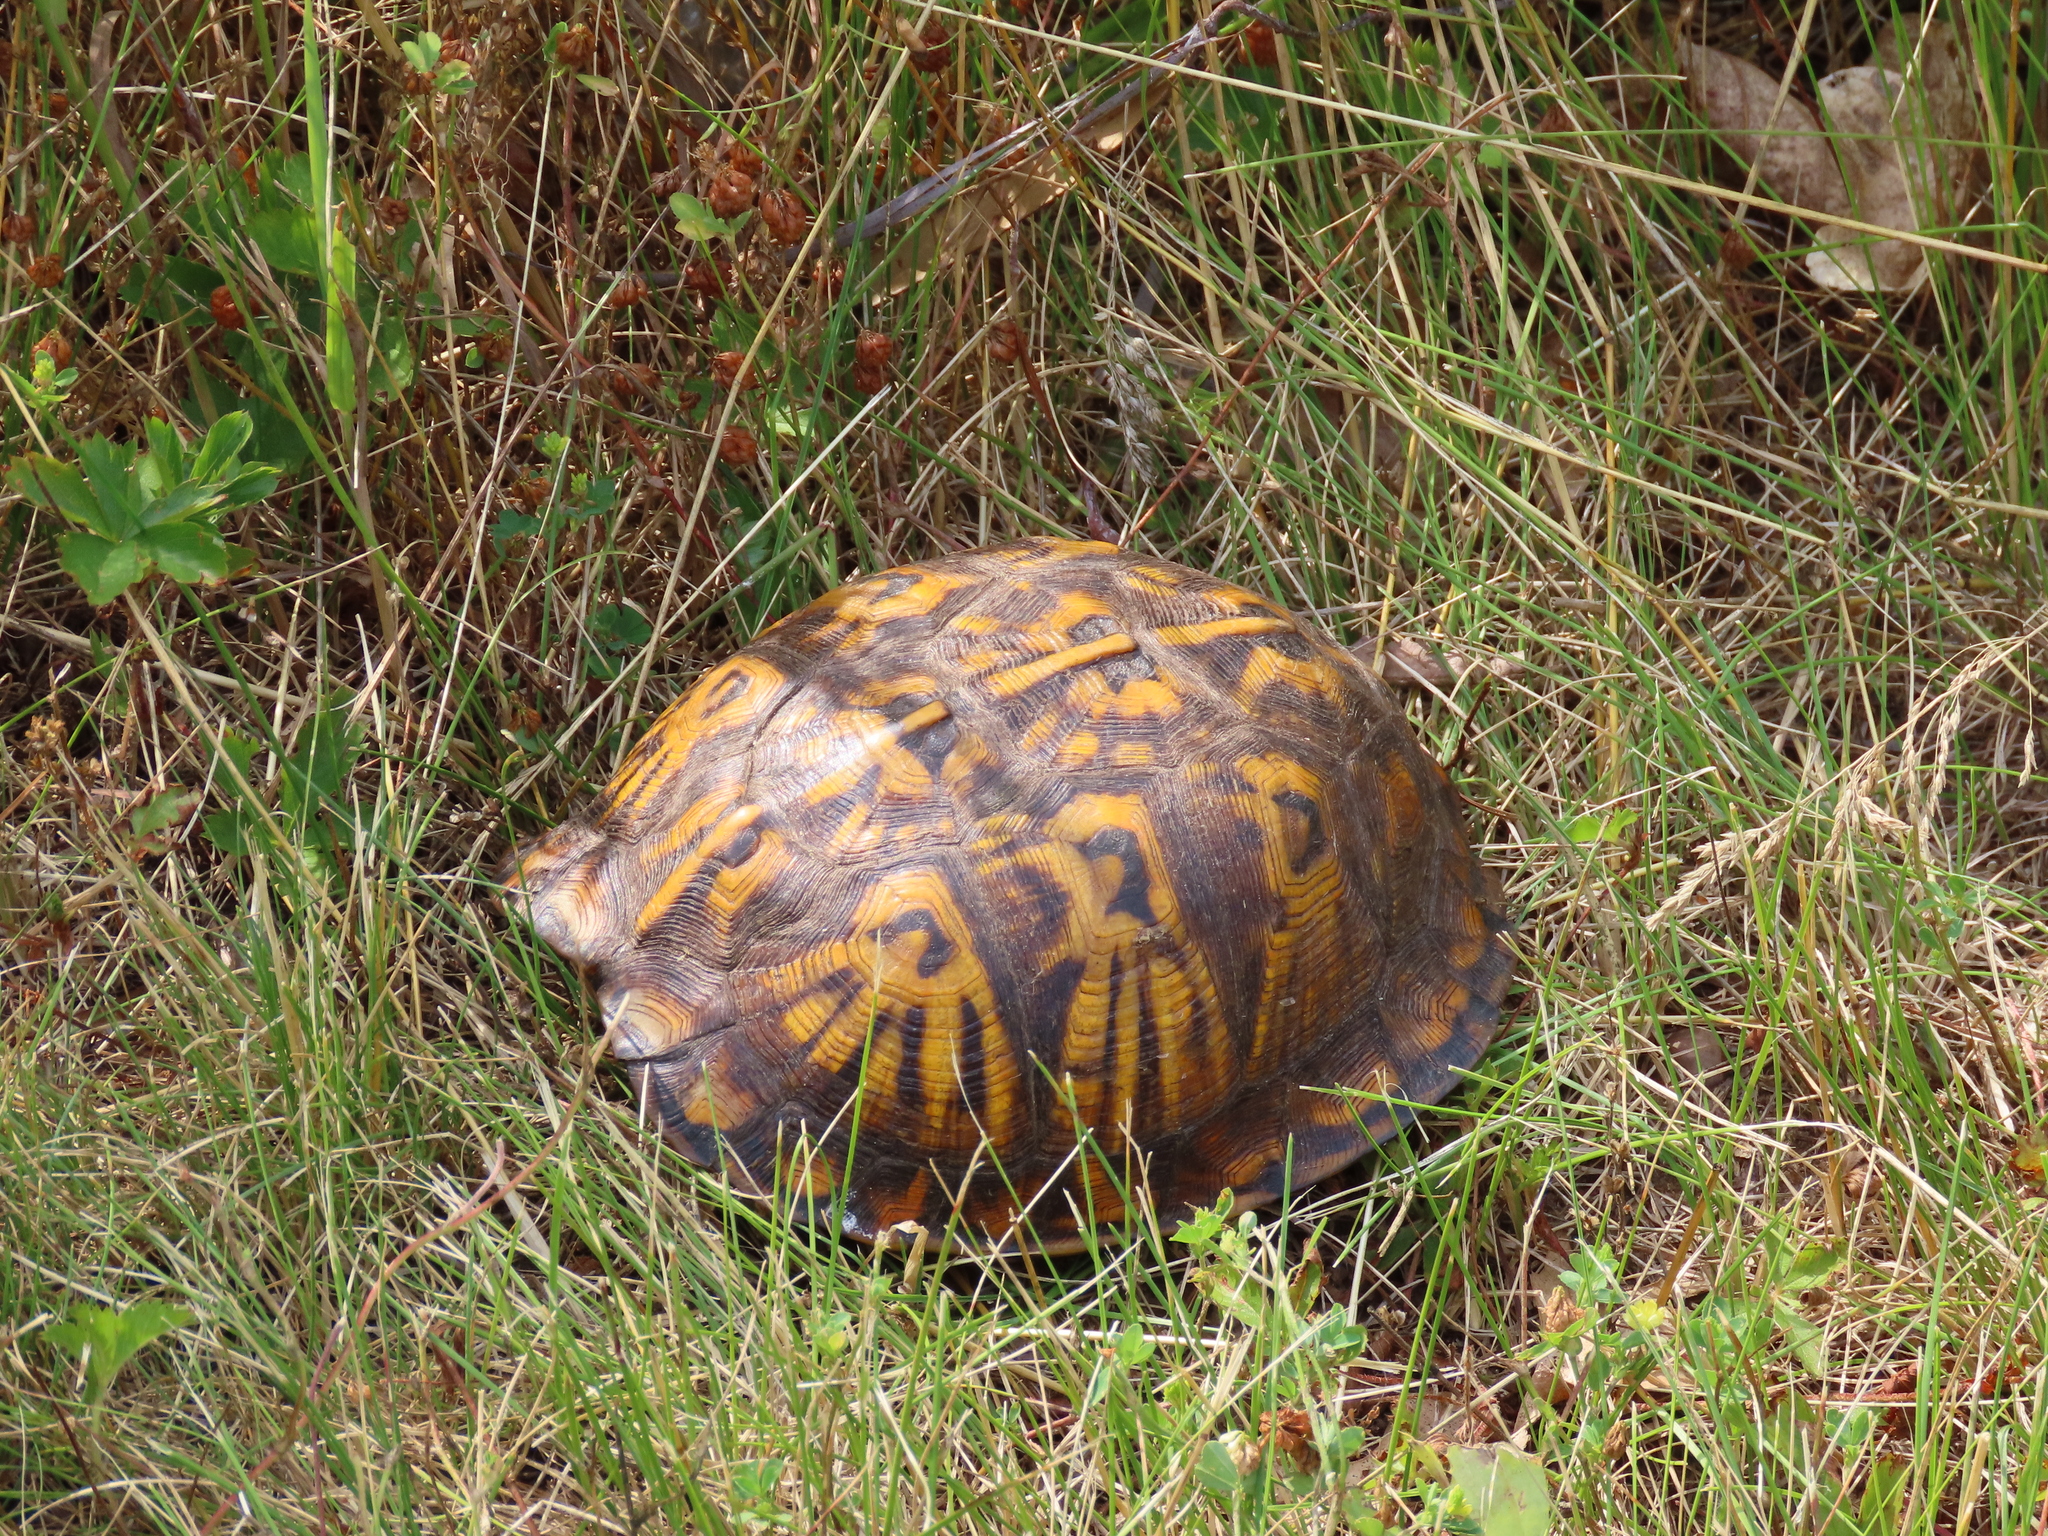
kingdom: Animalia
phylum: Chordata
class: Testudines
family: Emydidae
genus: Terrapene
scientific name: Terrapene carolina
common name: Common box turtle
